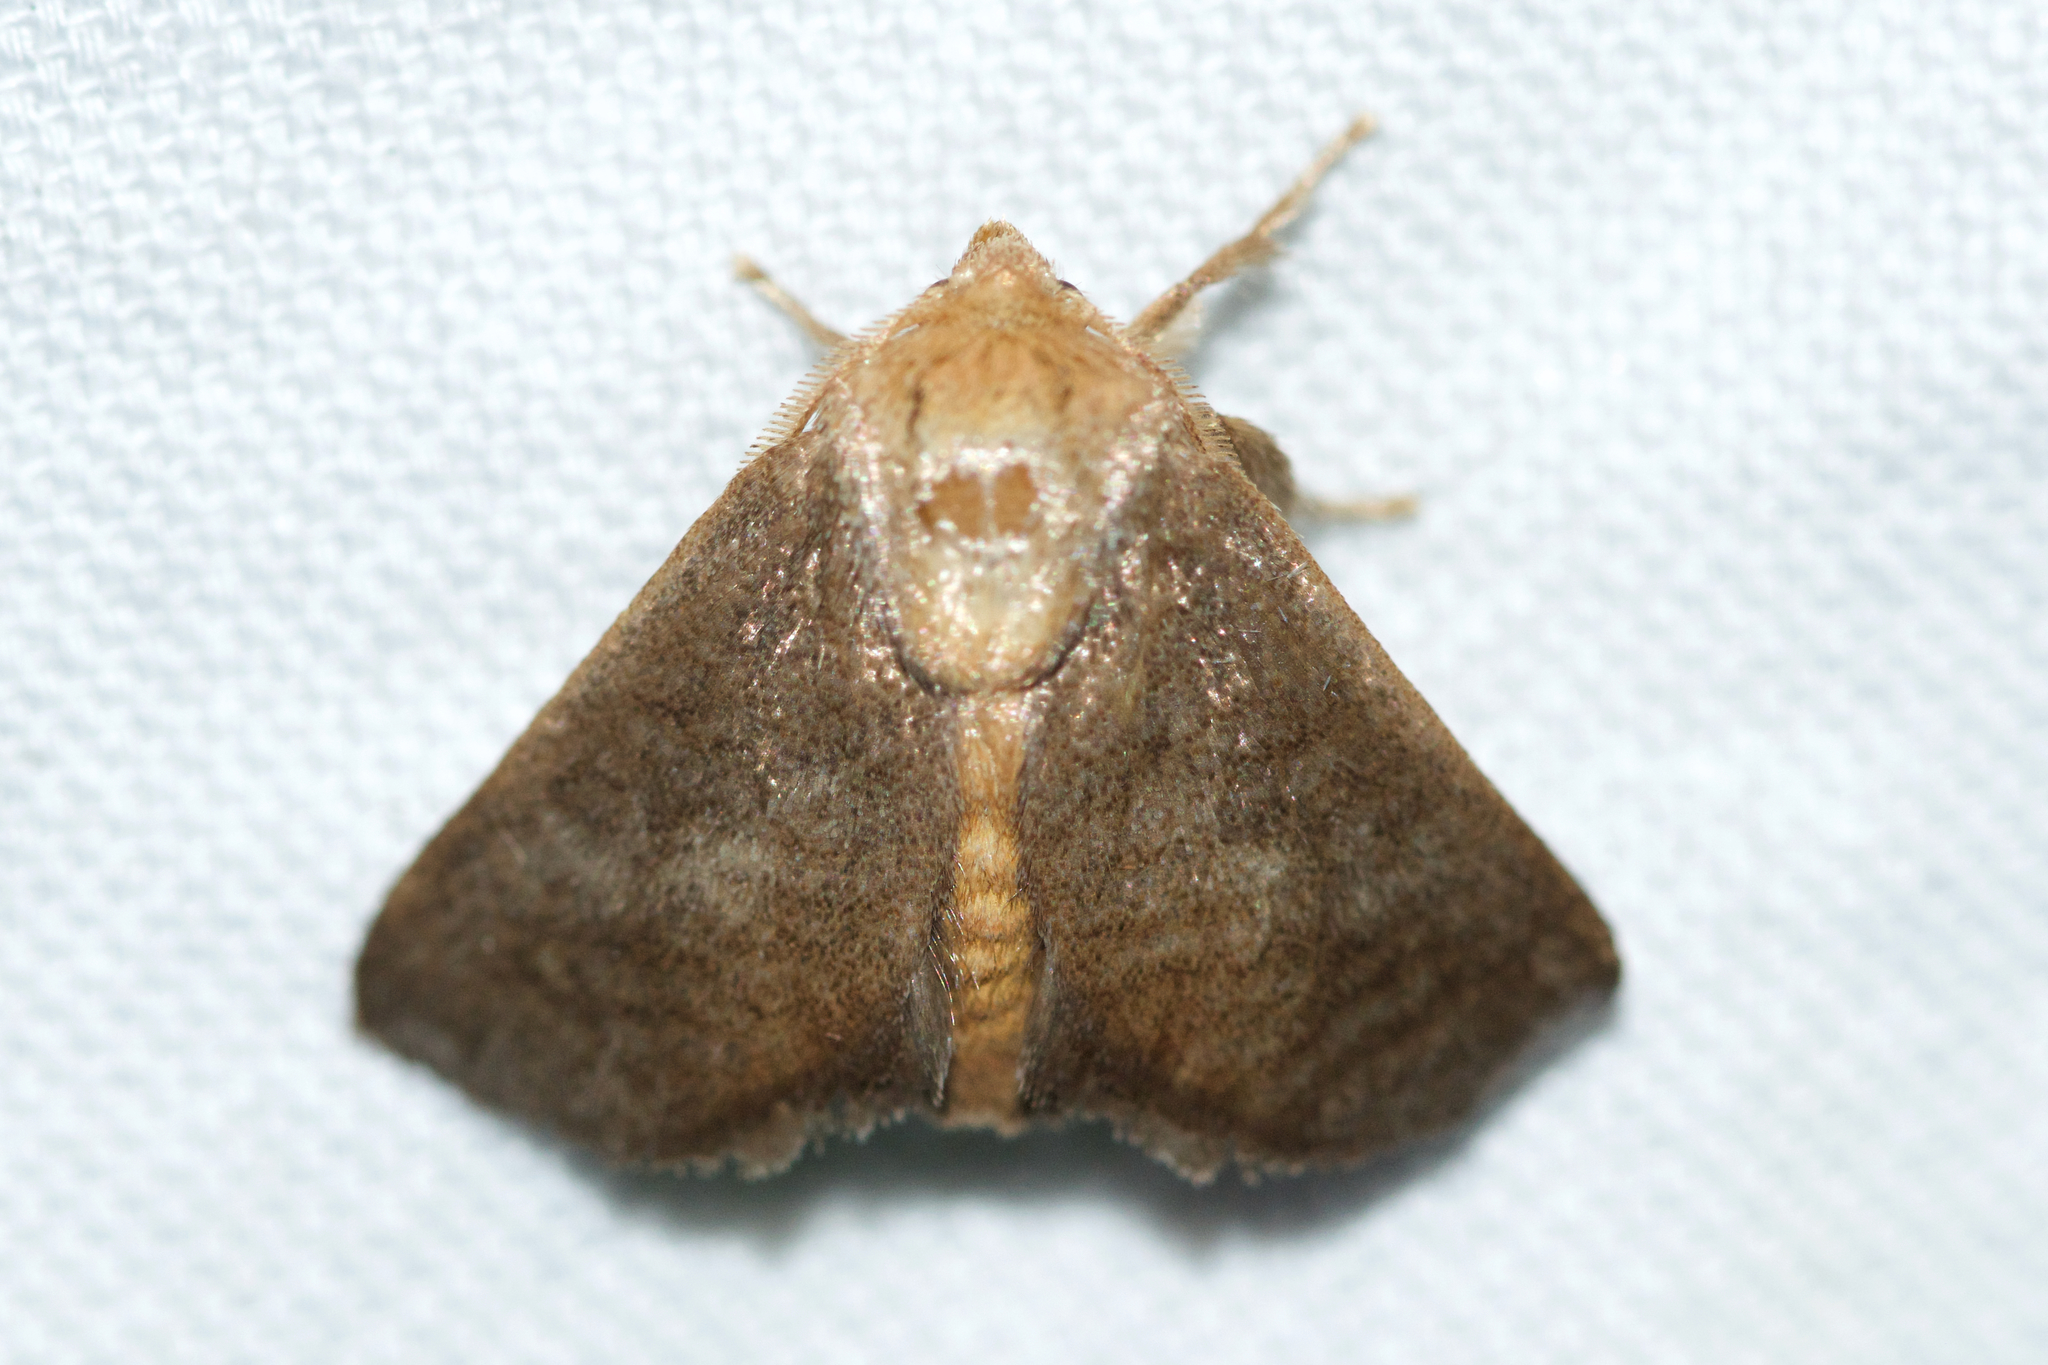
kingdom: Animalia
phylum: Arthropoda
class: Insecta
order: Lepidoptera
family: Limacodidae
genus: Isa
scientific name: Isa textula
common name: Crowned slug moth
